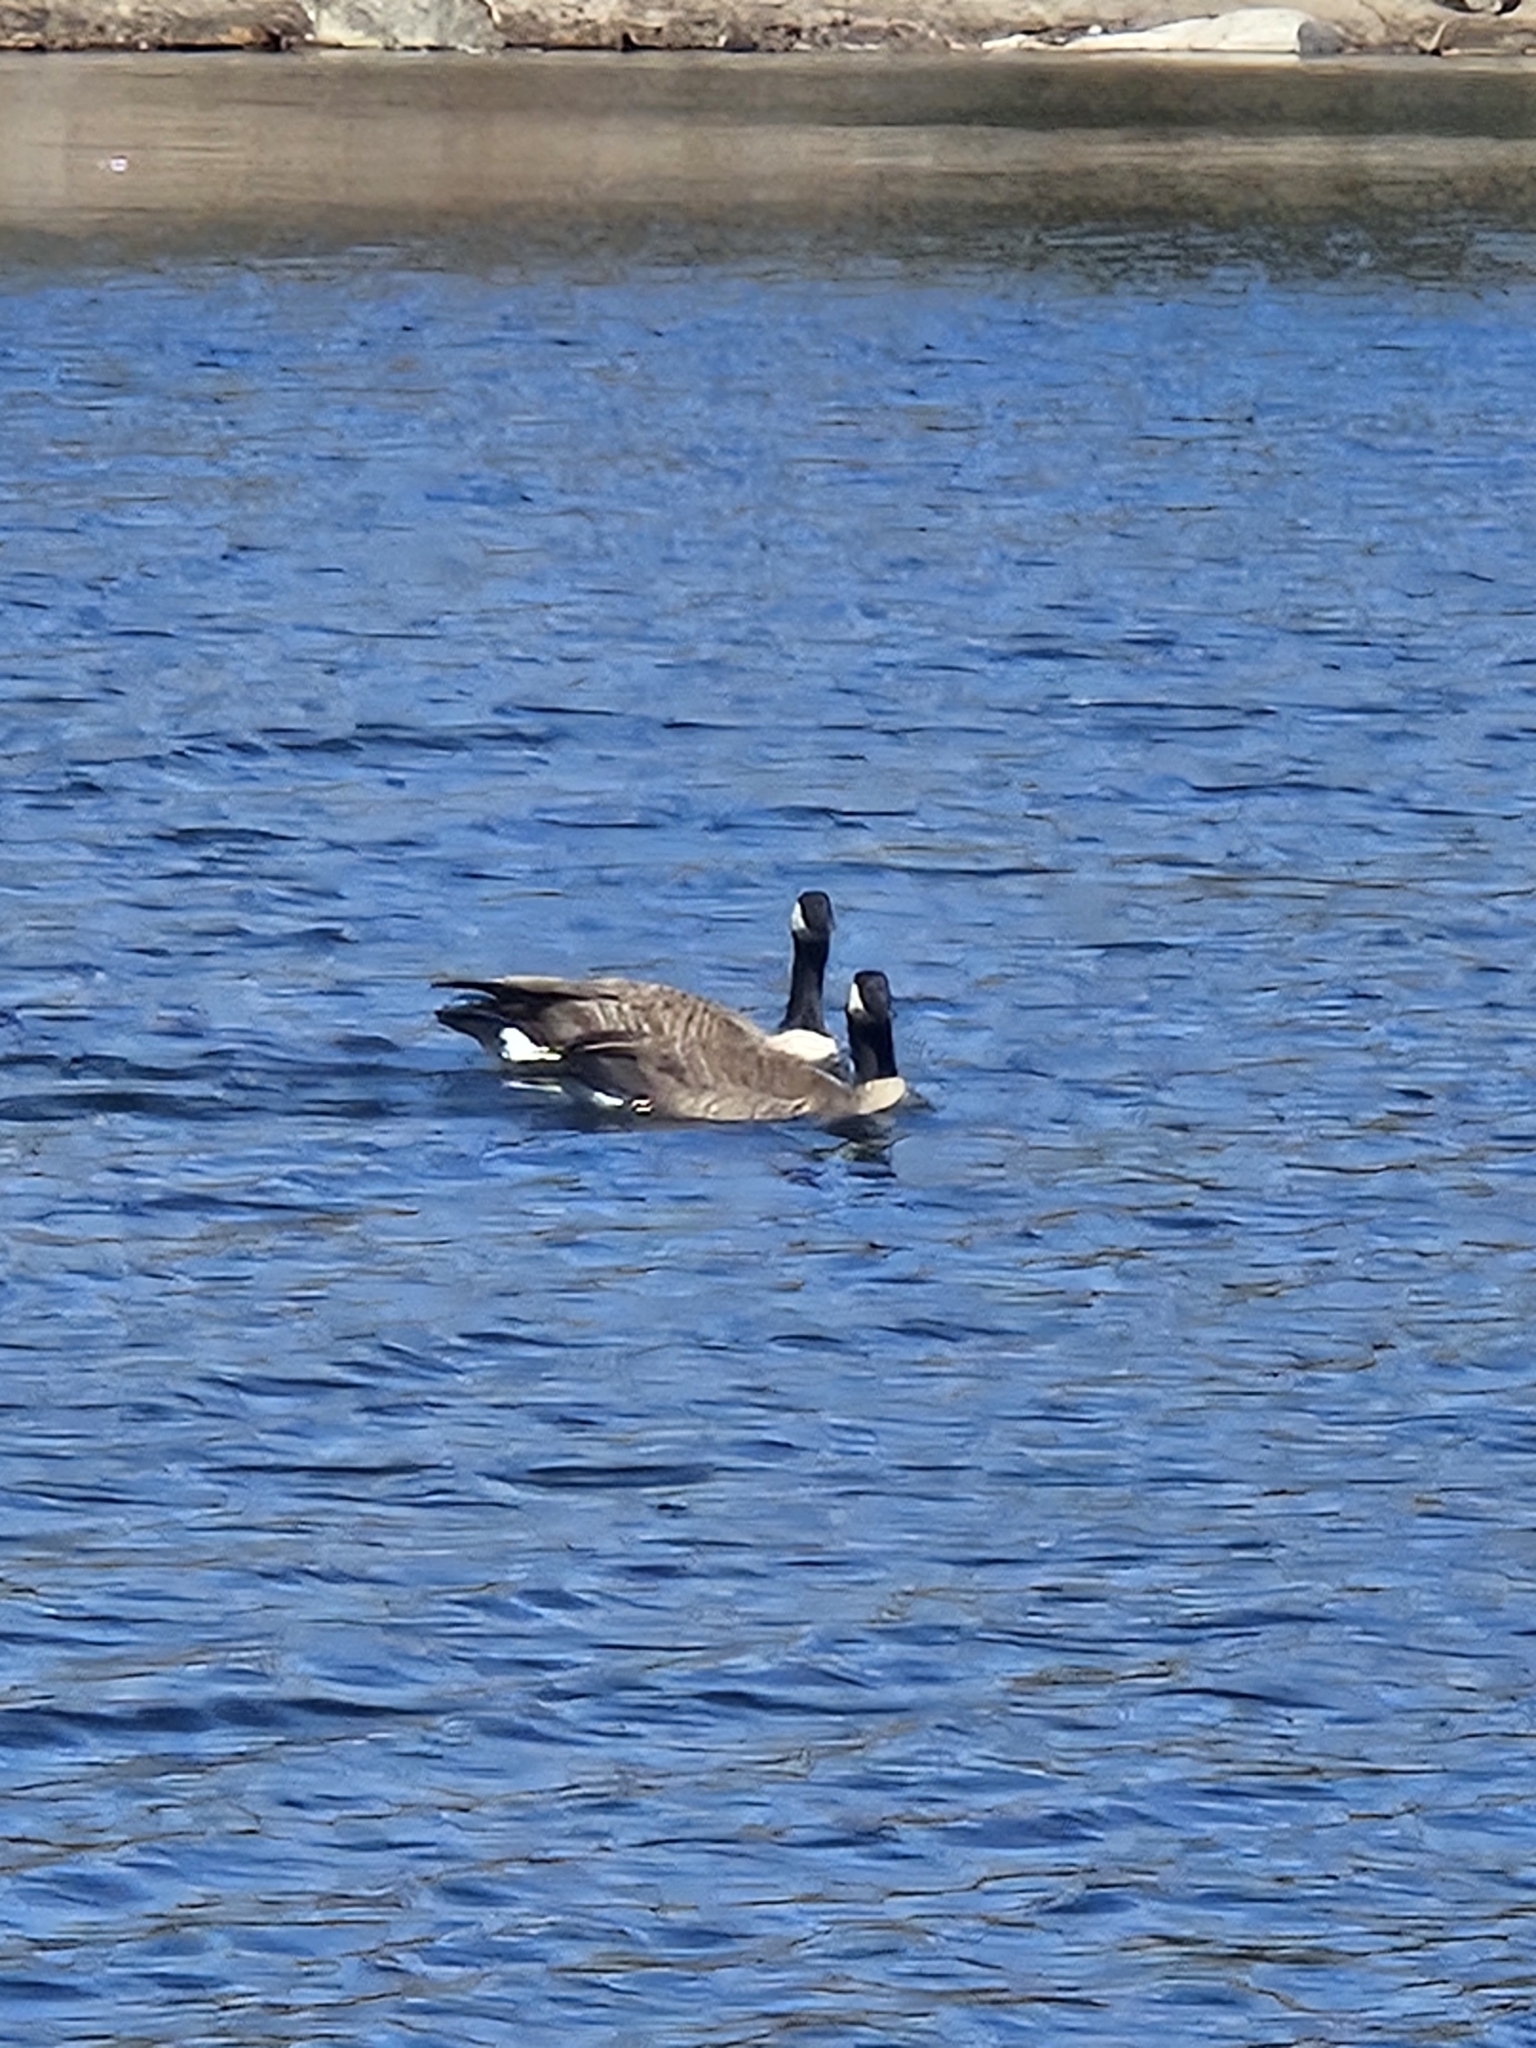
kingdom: Animalia
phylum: Chordata
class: Aves
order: Anseriformes
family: Anatidae
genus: Branta
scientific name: Branta canadensis
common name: Canada goose
